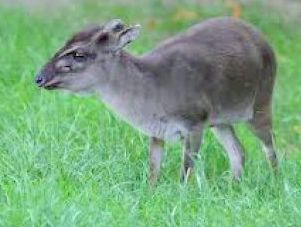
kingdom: Animalia
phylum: Chordata
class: Mammalia
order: Artiodactyla
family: Bovidae
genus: Philantomba
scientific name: Philantomba monticola
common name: Blue duiker
